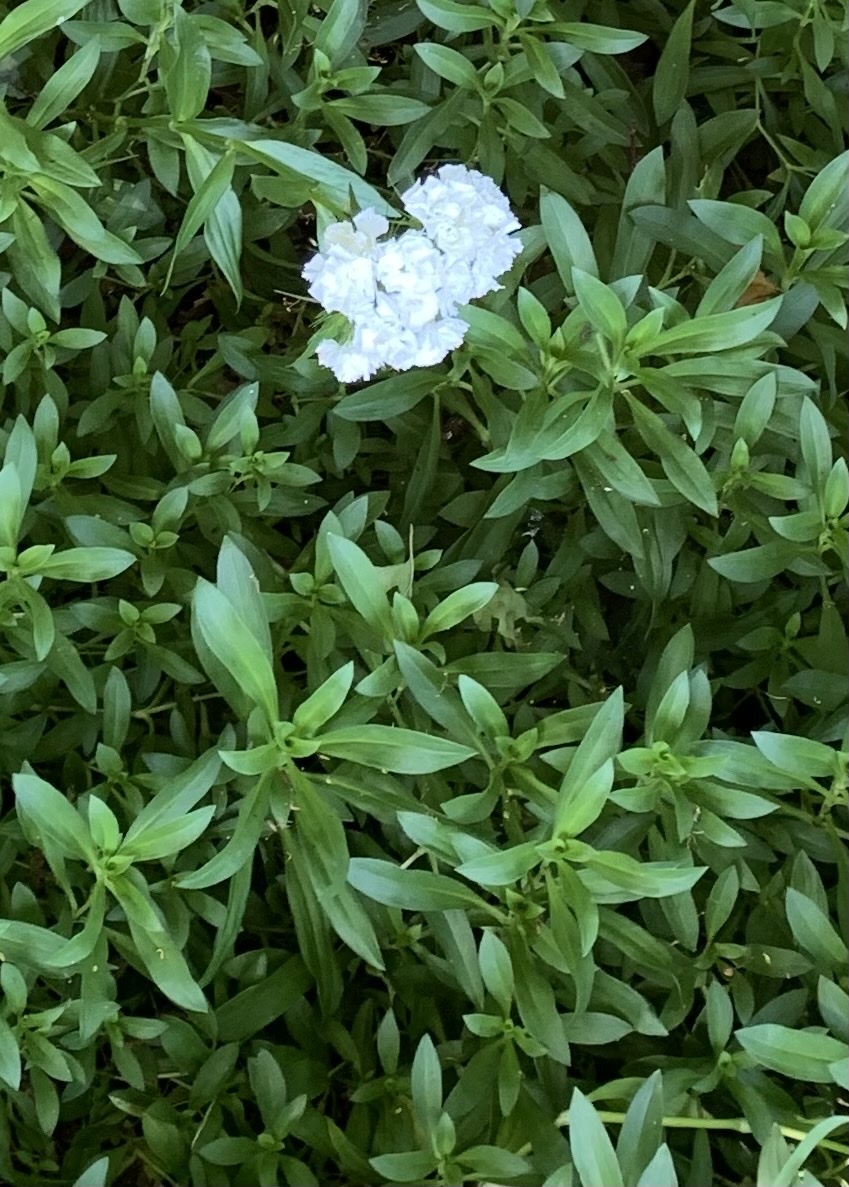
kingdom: Plantae
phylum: Tracheophyta
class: Magnoliopsida
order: Caryophyllales
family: Caryophyllaceae
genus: Dianthus
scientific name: Dianthus barbatus
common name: Sweet-william
